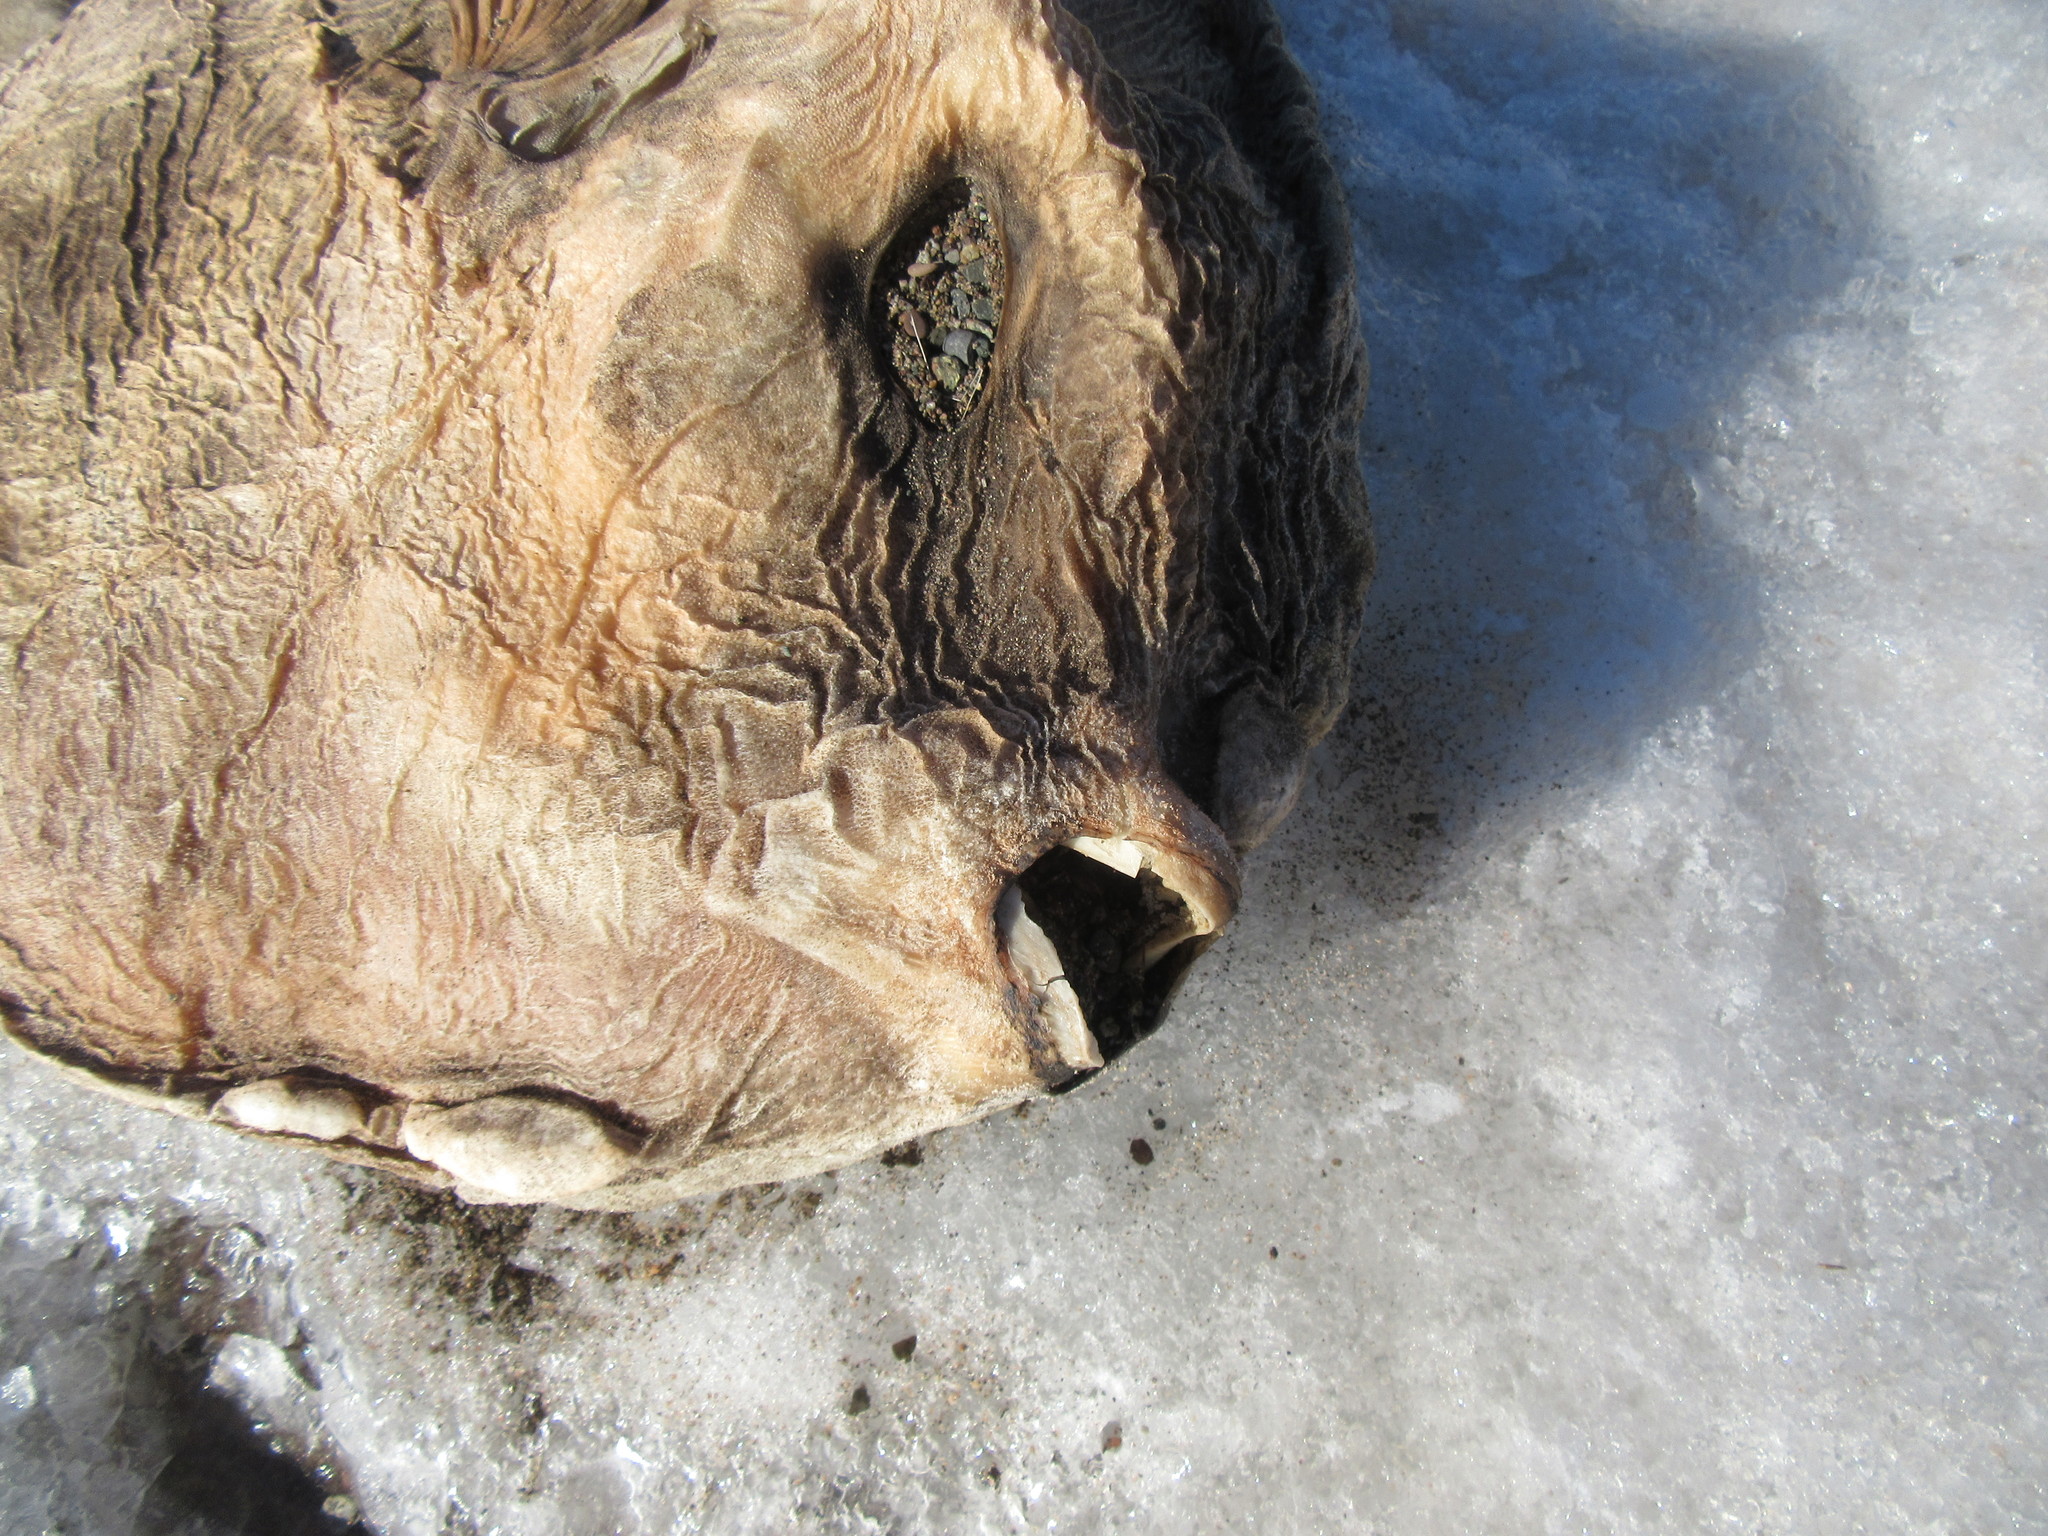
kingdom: Animalia
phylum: Chordata
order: Tetraodontiformes
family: Molidae
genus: Mola
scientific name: Mola mola
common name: Ocean sunfish
